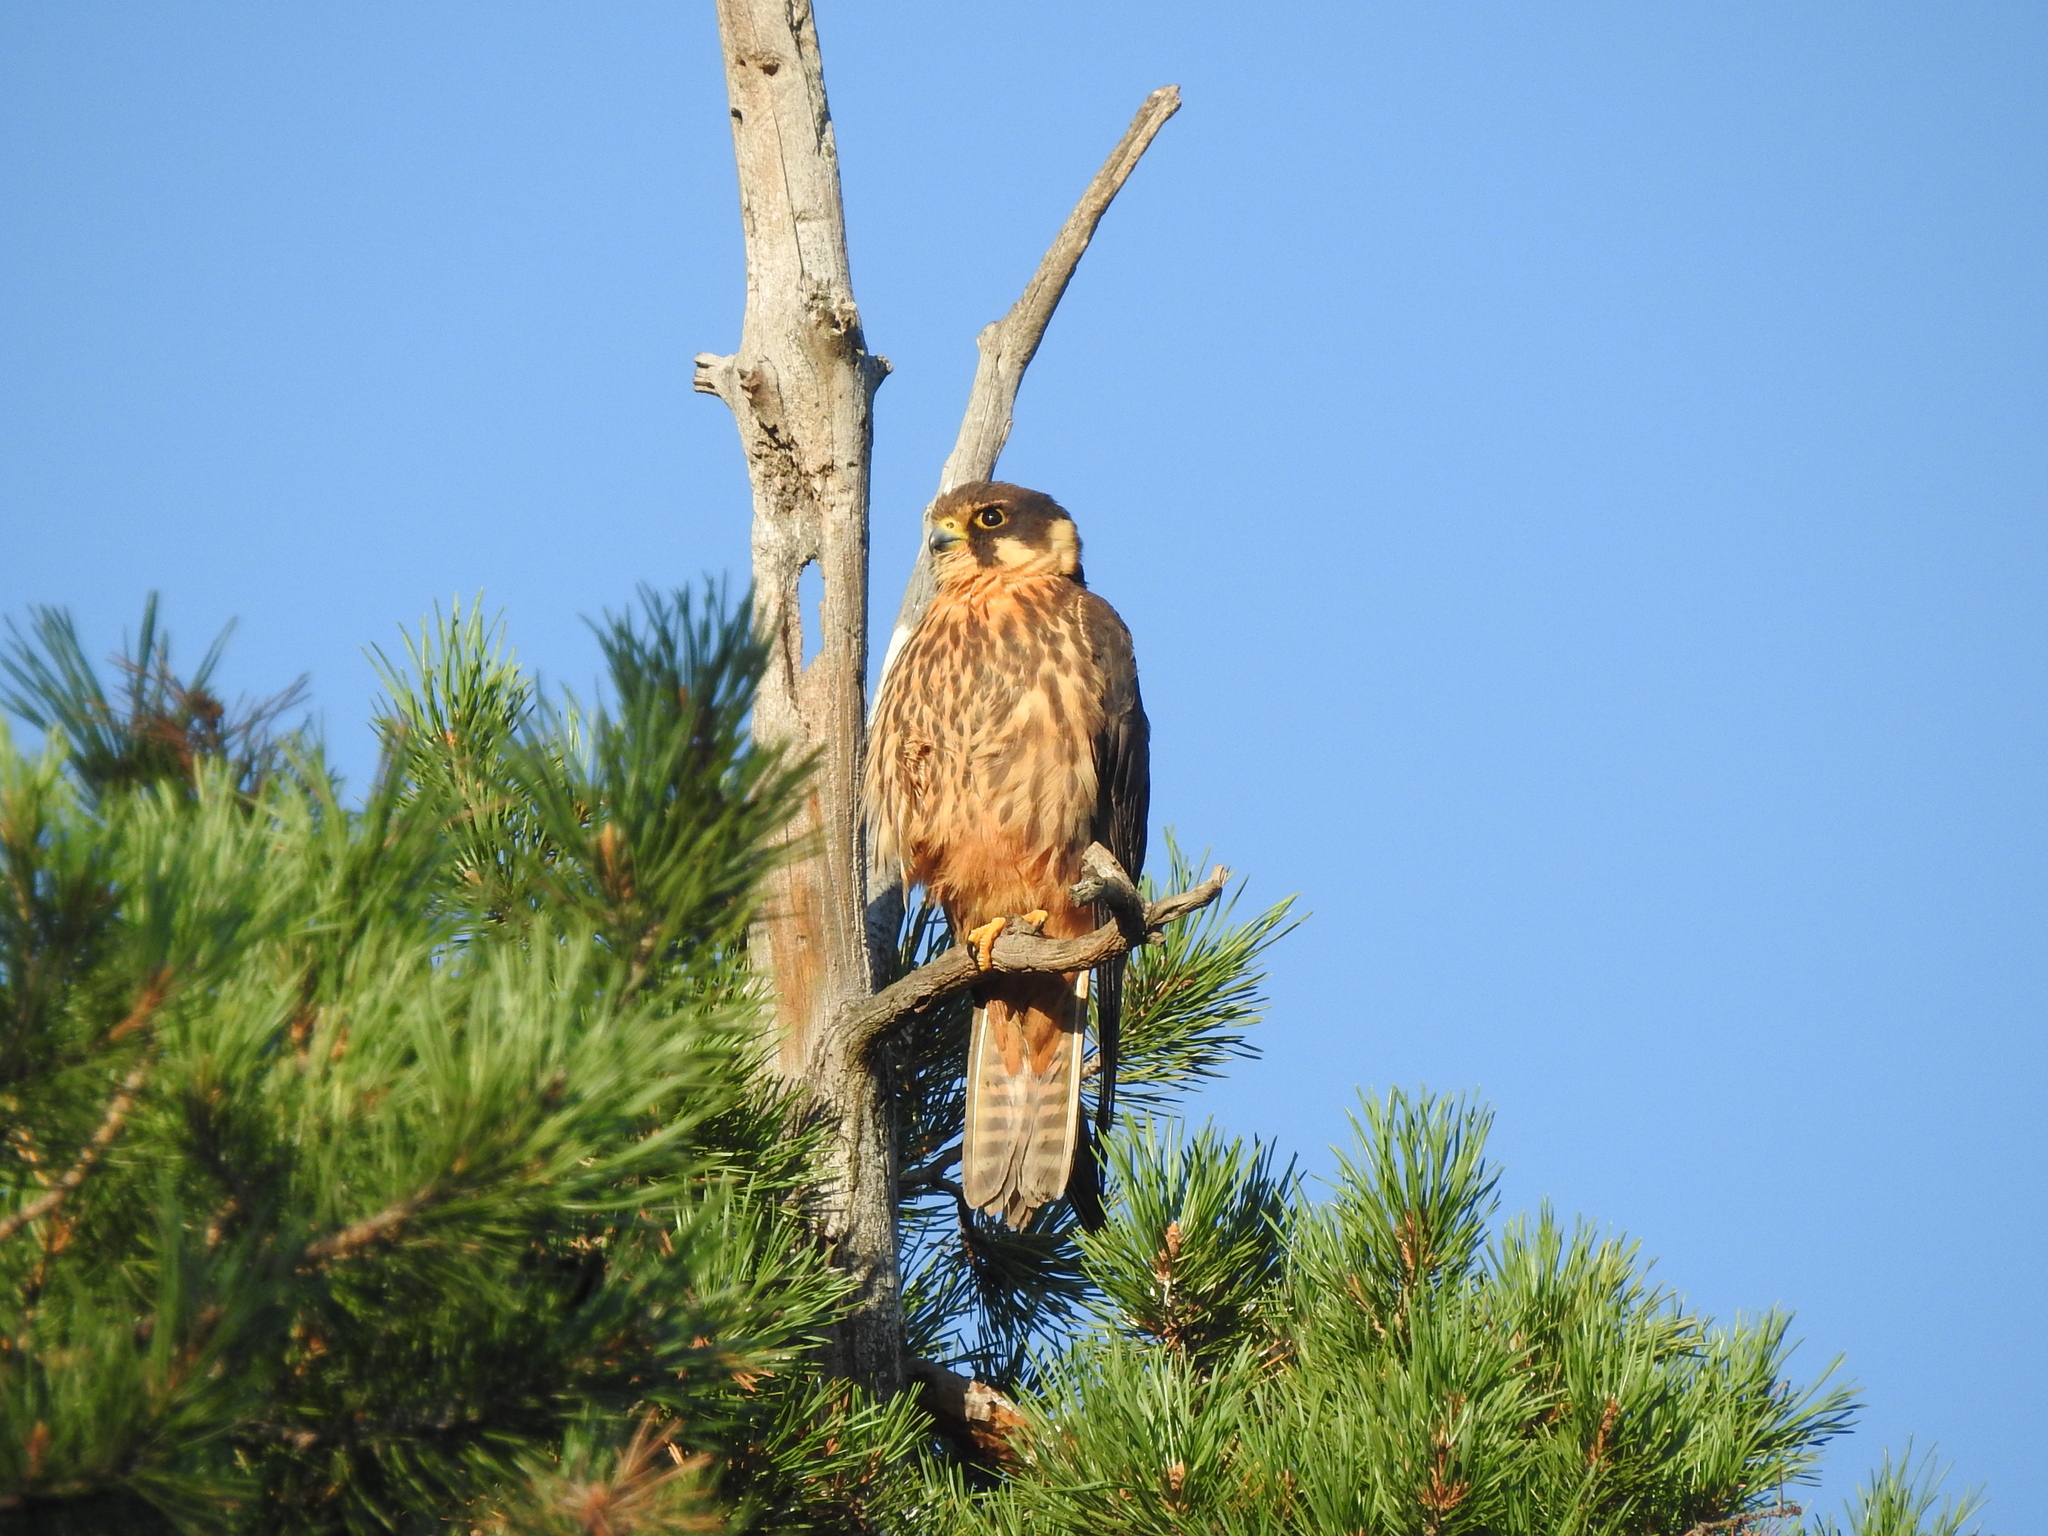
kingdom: Animalia
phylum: Chordata
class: Aves
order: Falconiformes
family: Falconidae
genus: Falco
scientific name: Falco subbuteo
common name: Eurasian hobby
